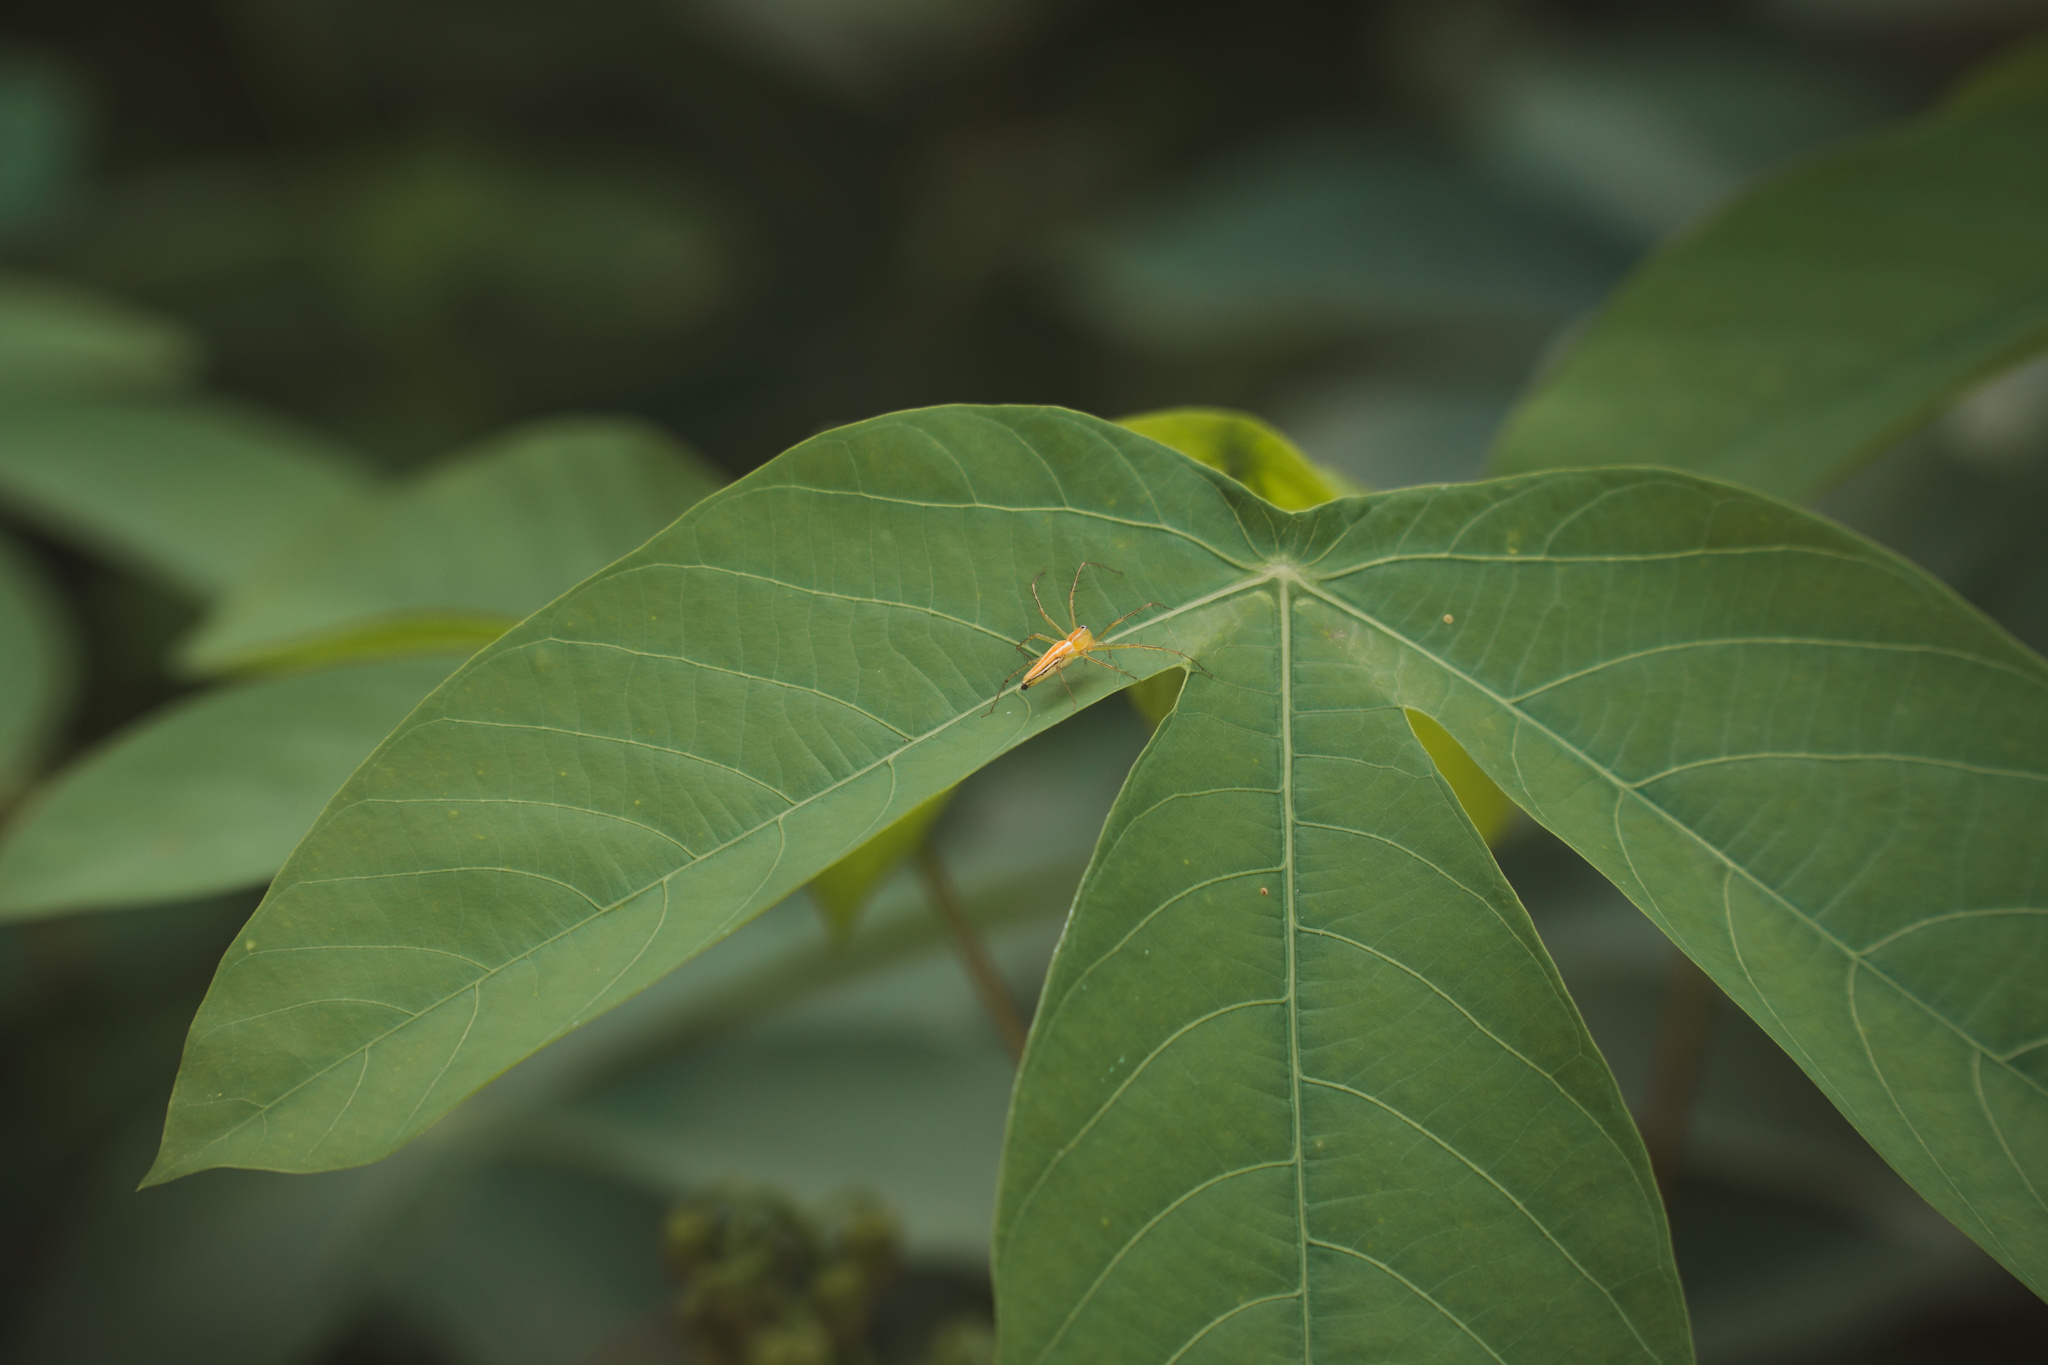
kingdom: Animalia
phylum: Arthropoda
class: Arachnida
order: Araneae
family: Oxyopidae
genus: Oxyopes
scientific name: Oxyopes macilentus
